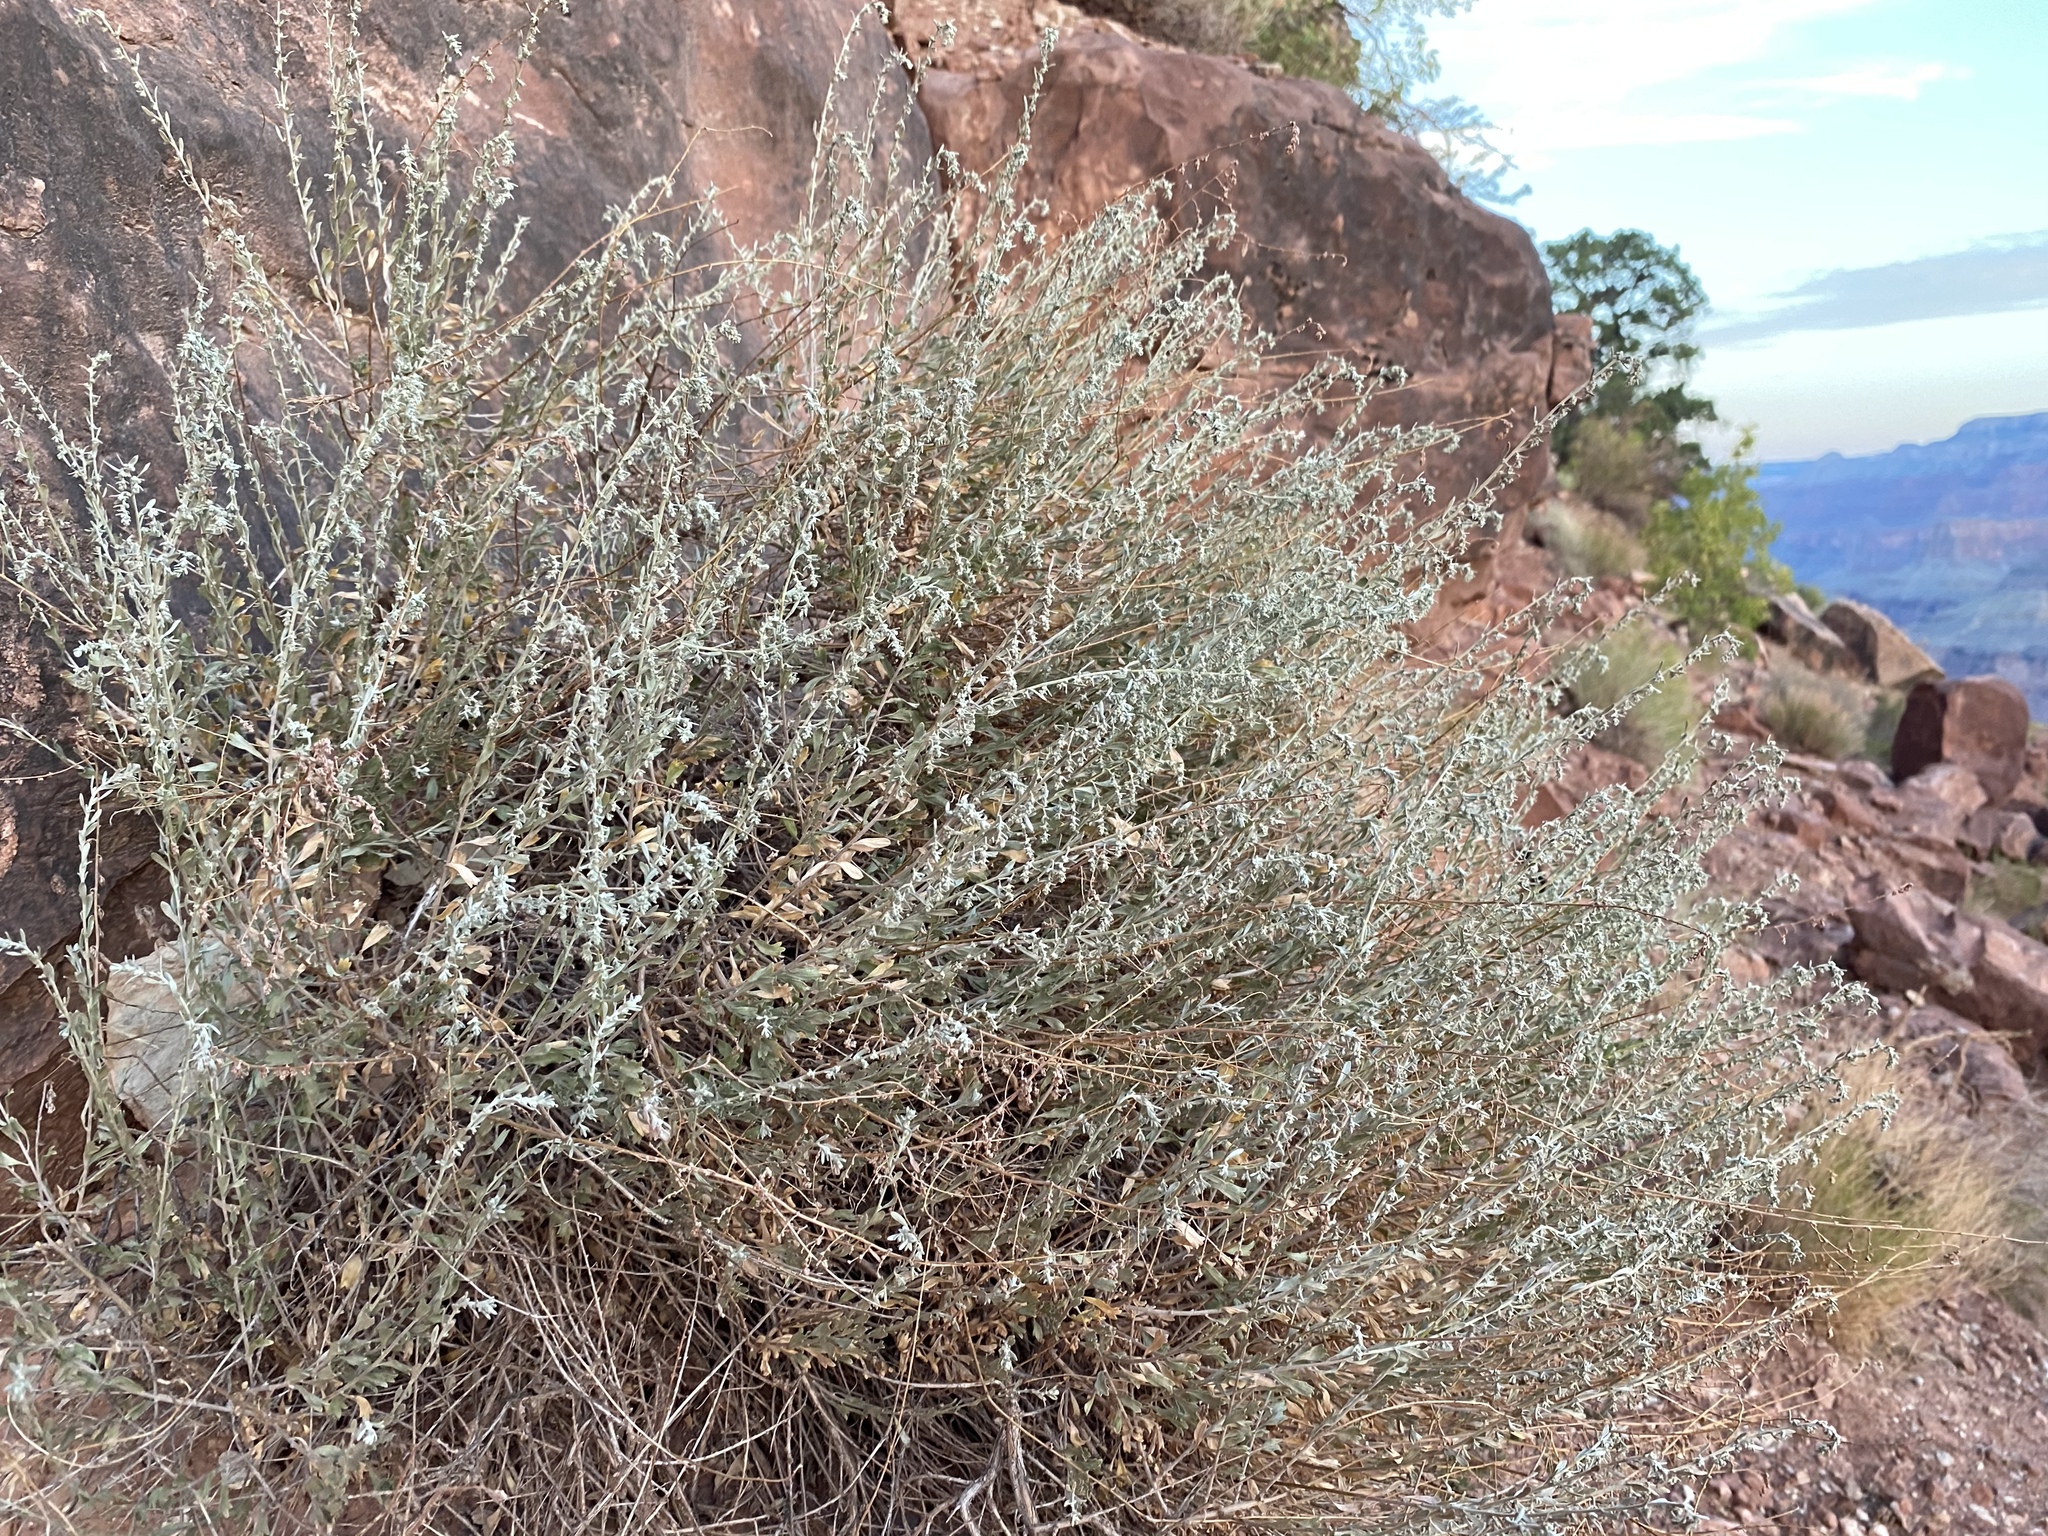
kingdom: Plantae
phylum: Tracheophyta
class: Magnoliopsida
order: Asterales
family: Asteraceae
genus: Artemisia
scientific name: Artemisia bigelovii
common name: Bigelow sagebrush
